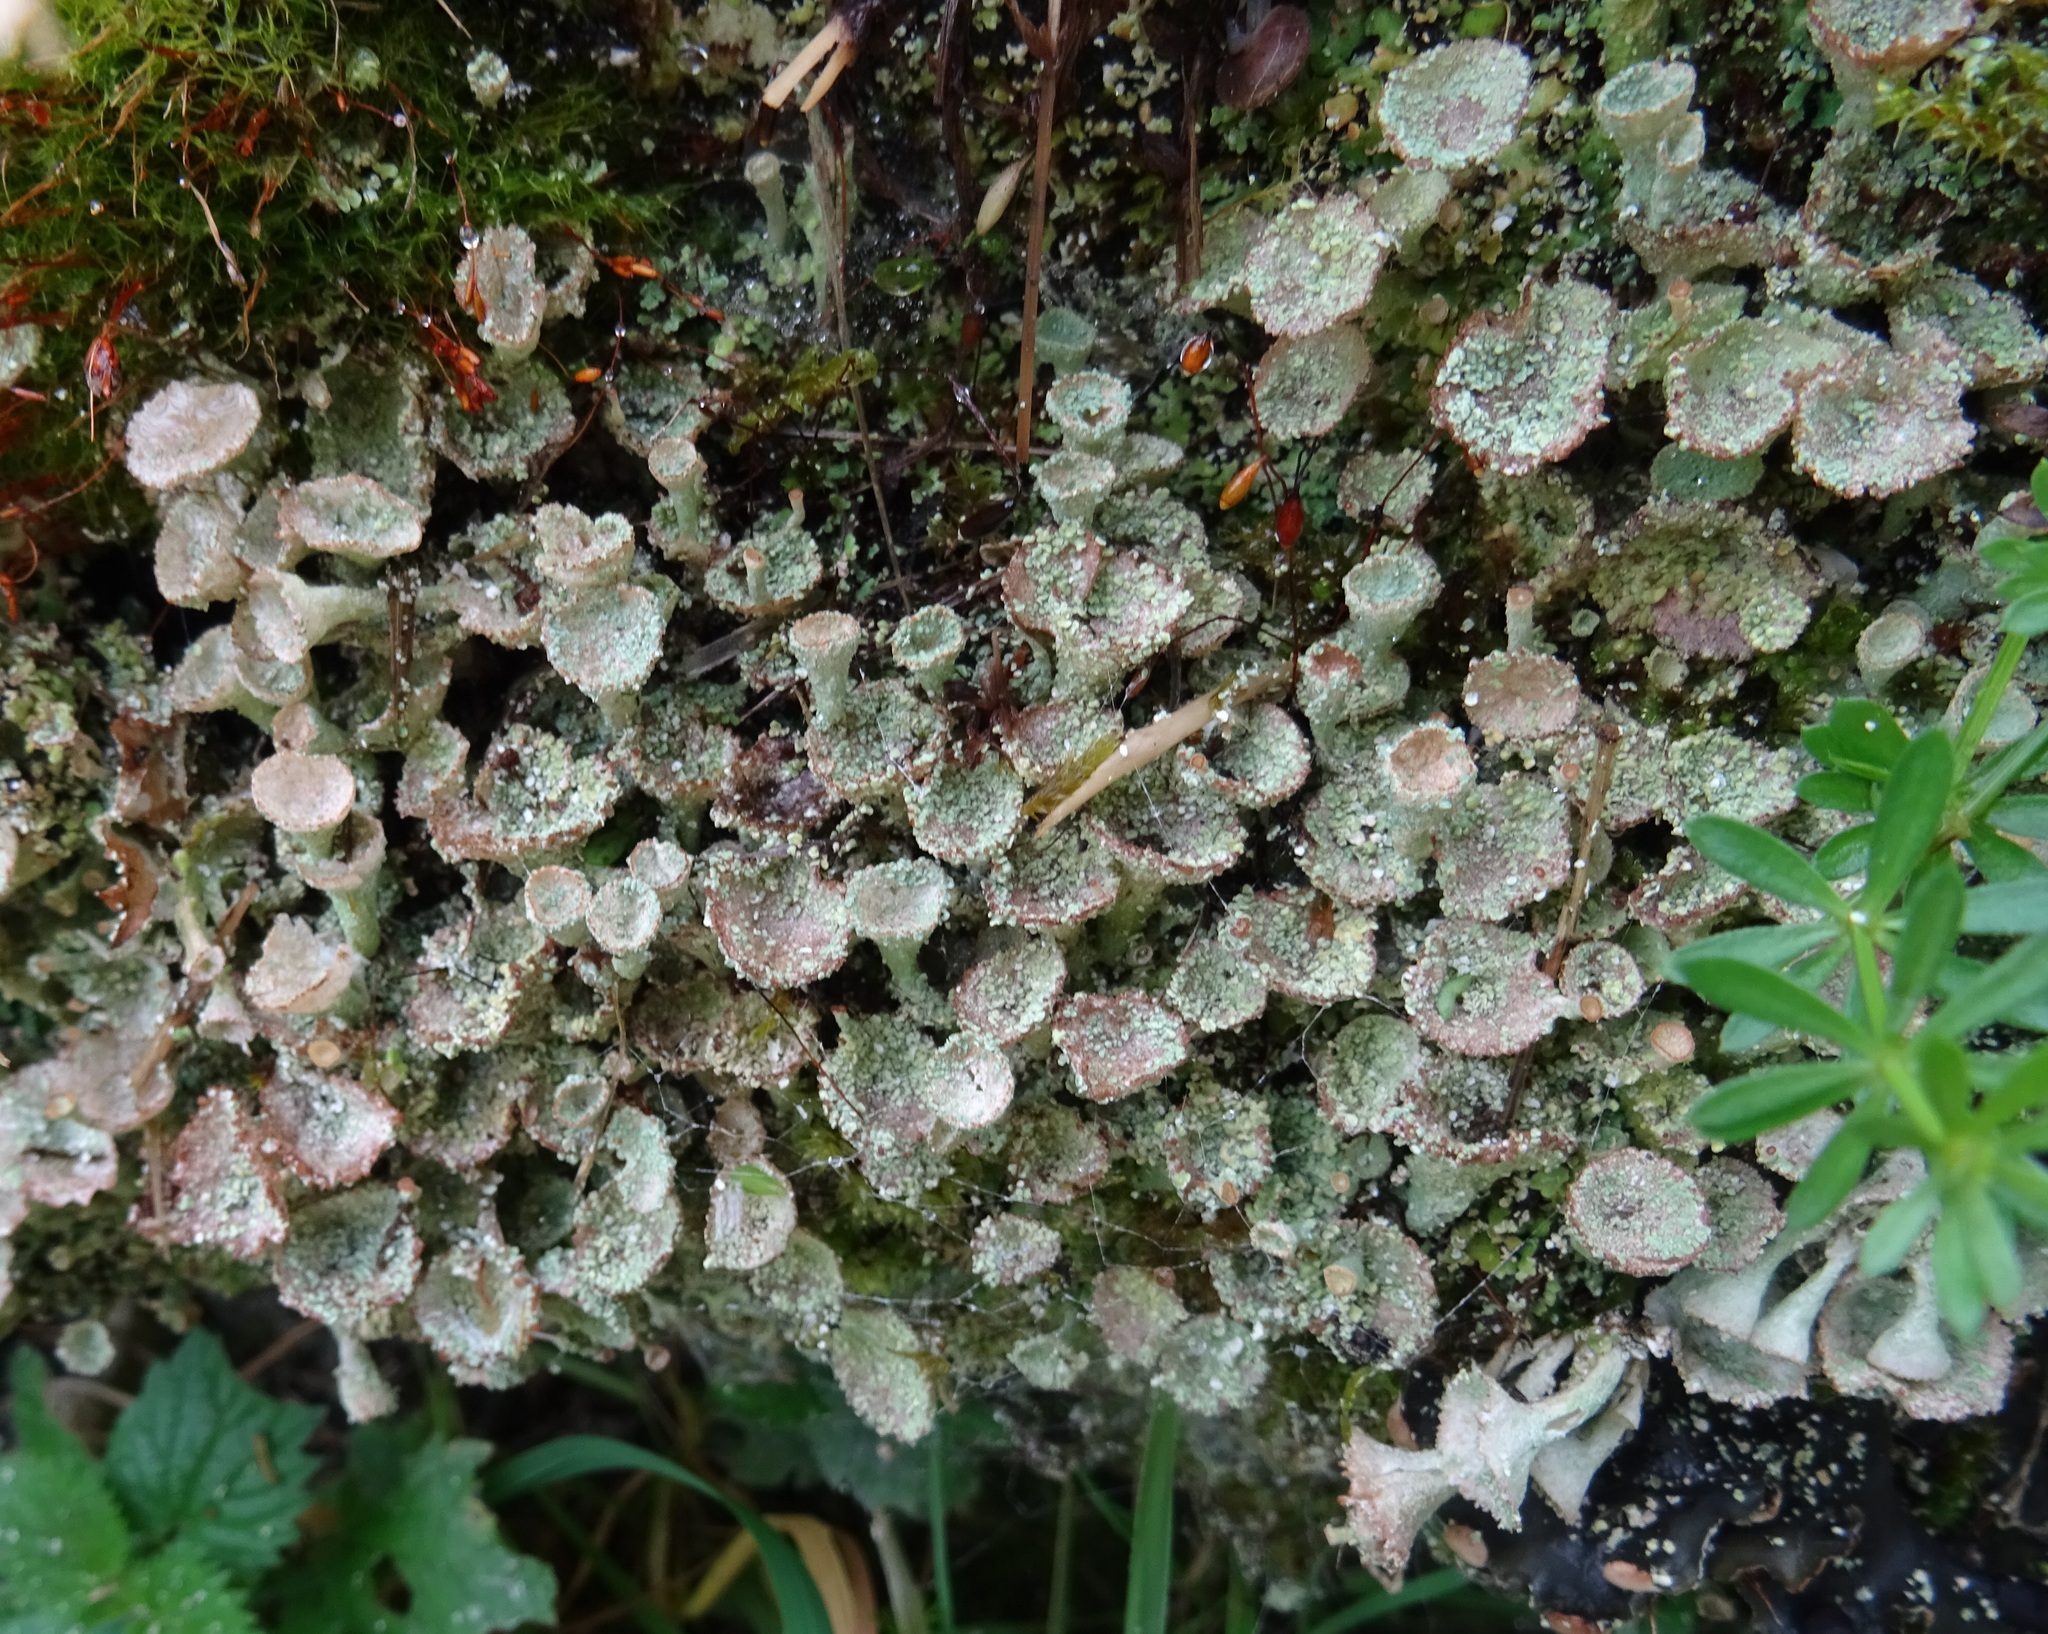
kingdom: Fungi
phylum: Ascomycota
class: Lecanoromycetes
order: Lecanorales
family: Cladoniaceae
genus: Cladonia
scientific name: Cladonia pyxidata
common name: Pebbled pixie cup
